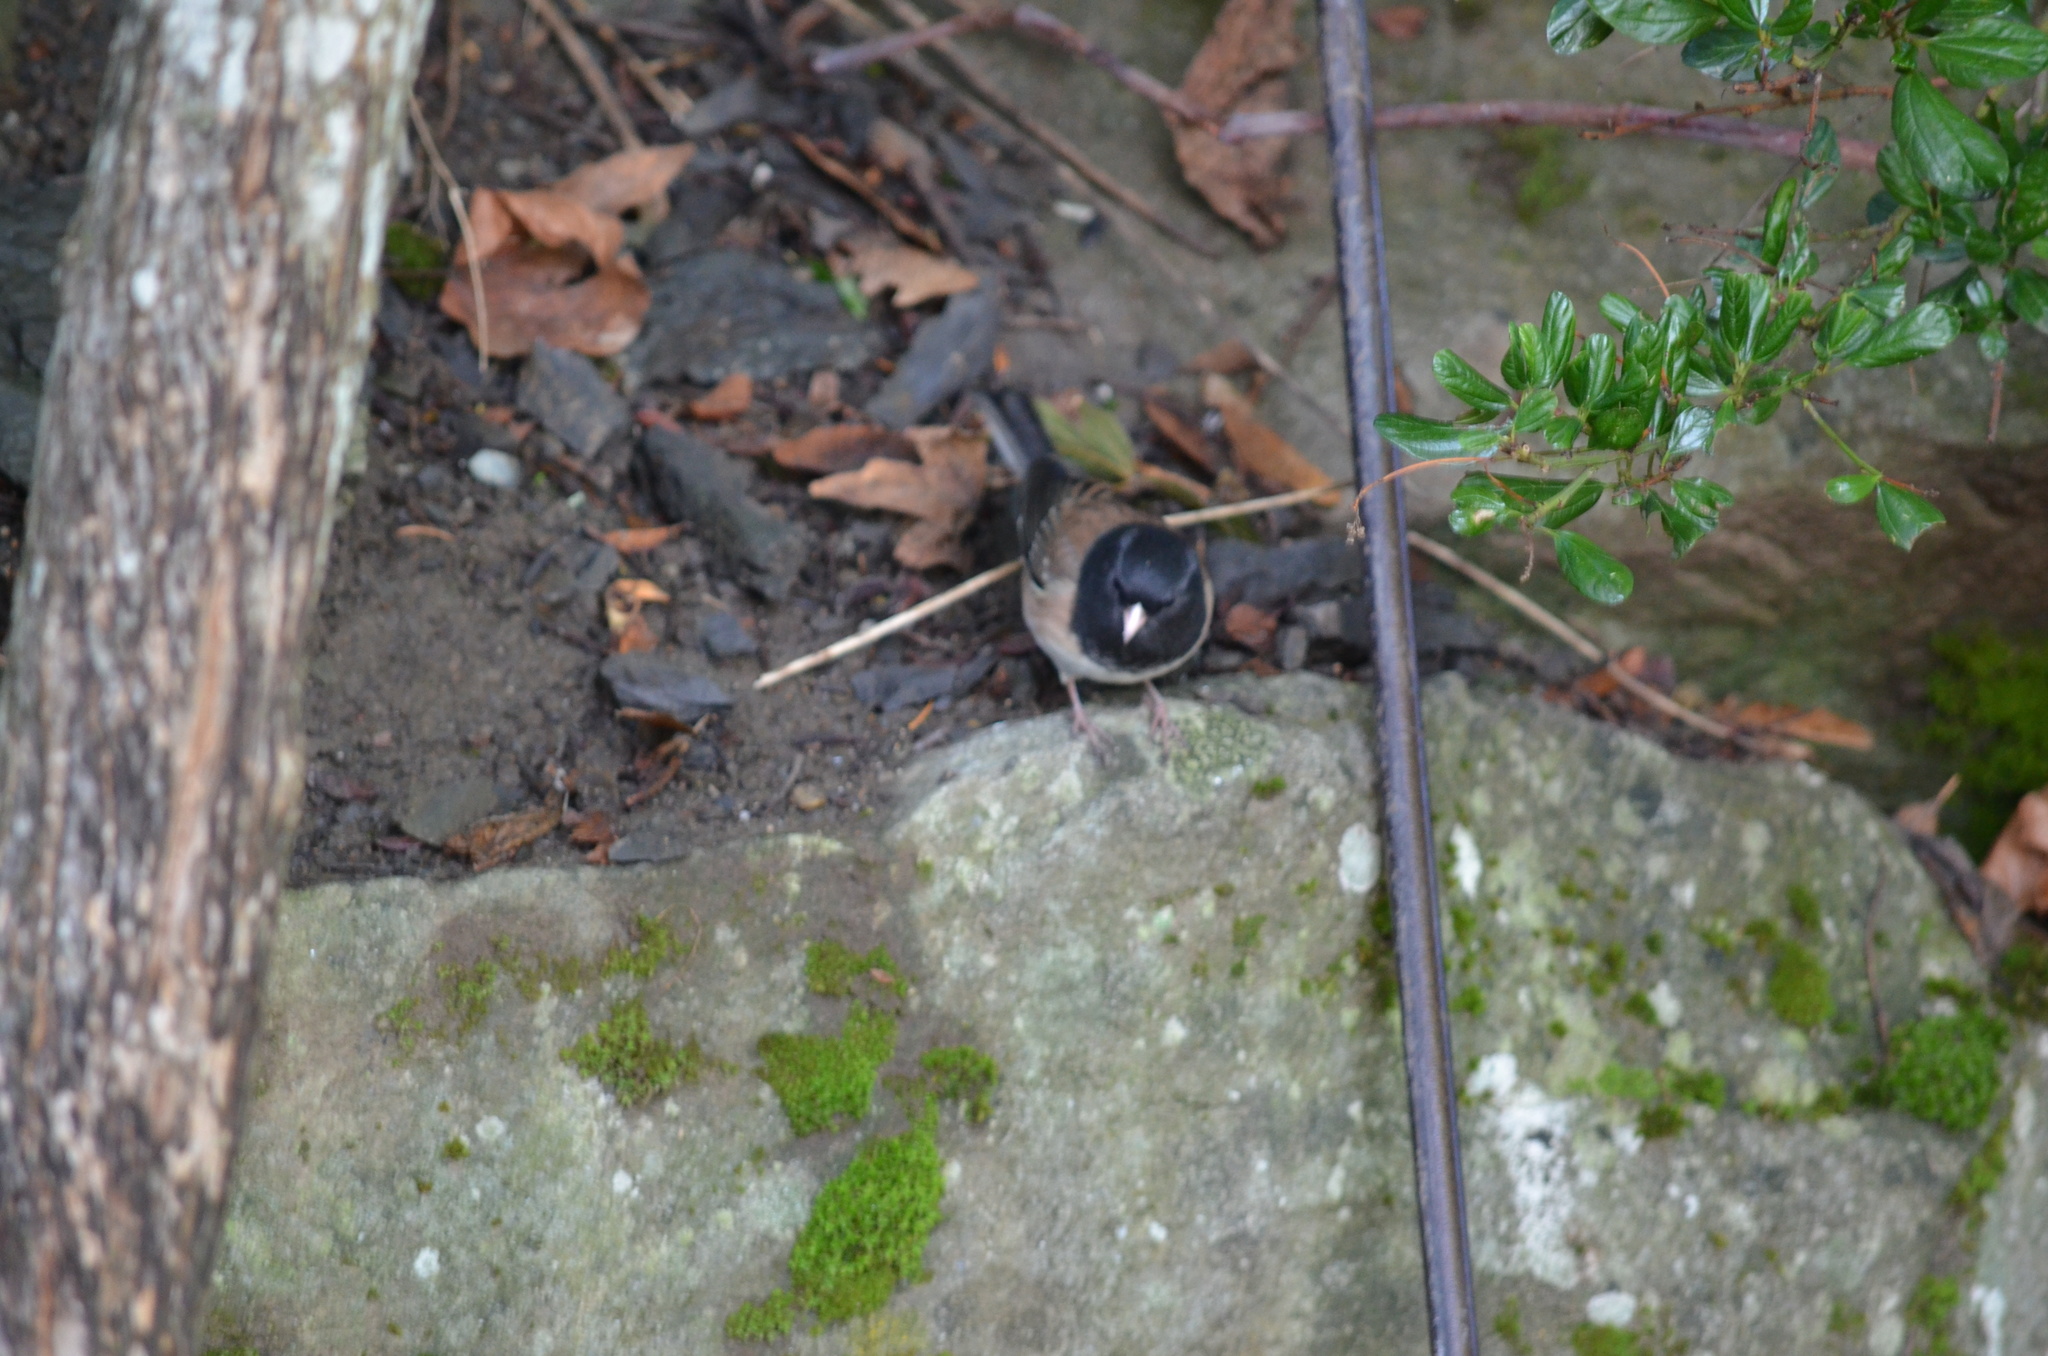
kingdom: Animalia
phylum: Chordata
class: Aves
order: Passeriformes
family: Passerellidae
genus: Junco
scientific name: Junco hyemalis
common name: Dark-eyed junco
